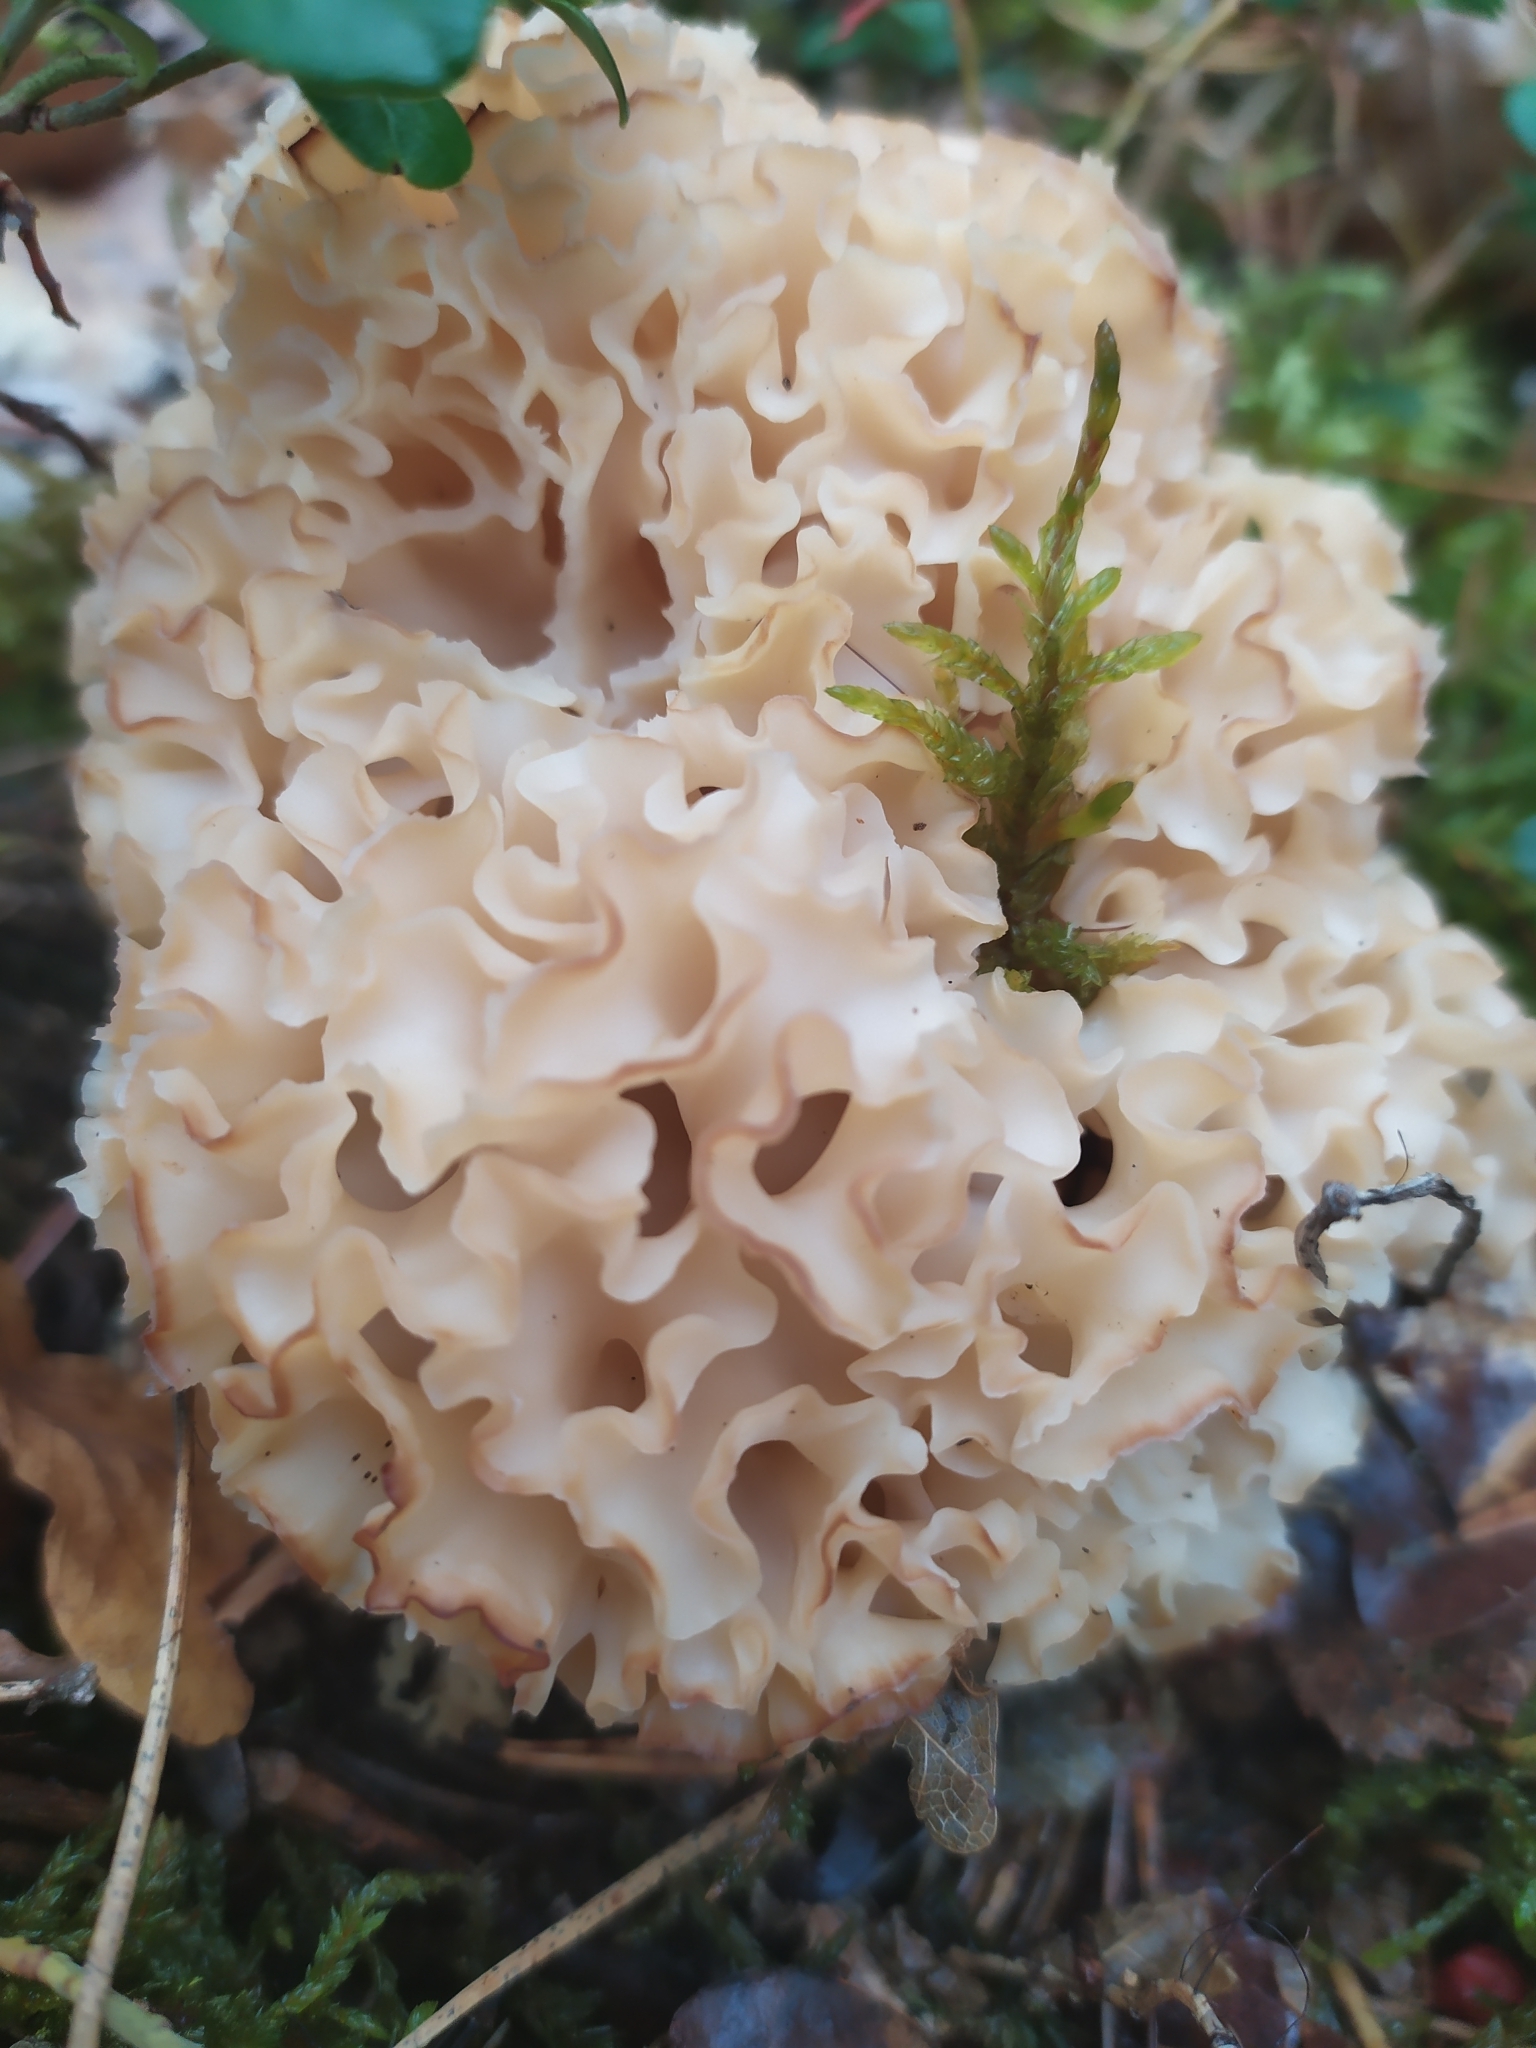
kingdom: Fungi
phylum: Basidiomycota
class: Agaricomycetes
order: Polyporales
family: Sparassidaceae
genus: Sparassis
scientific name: Sparassis crispa
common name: Brain fungus
